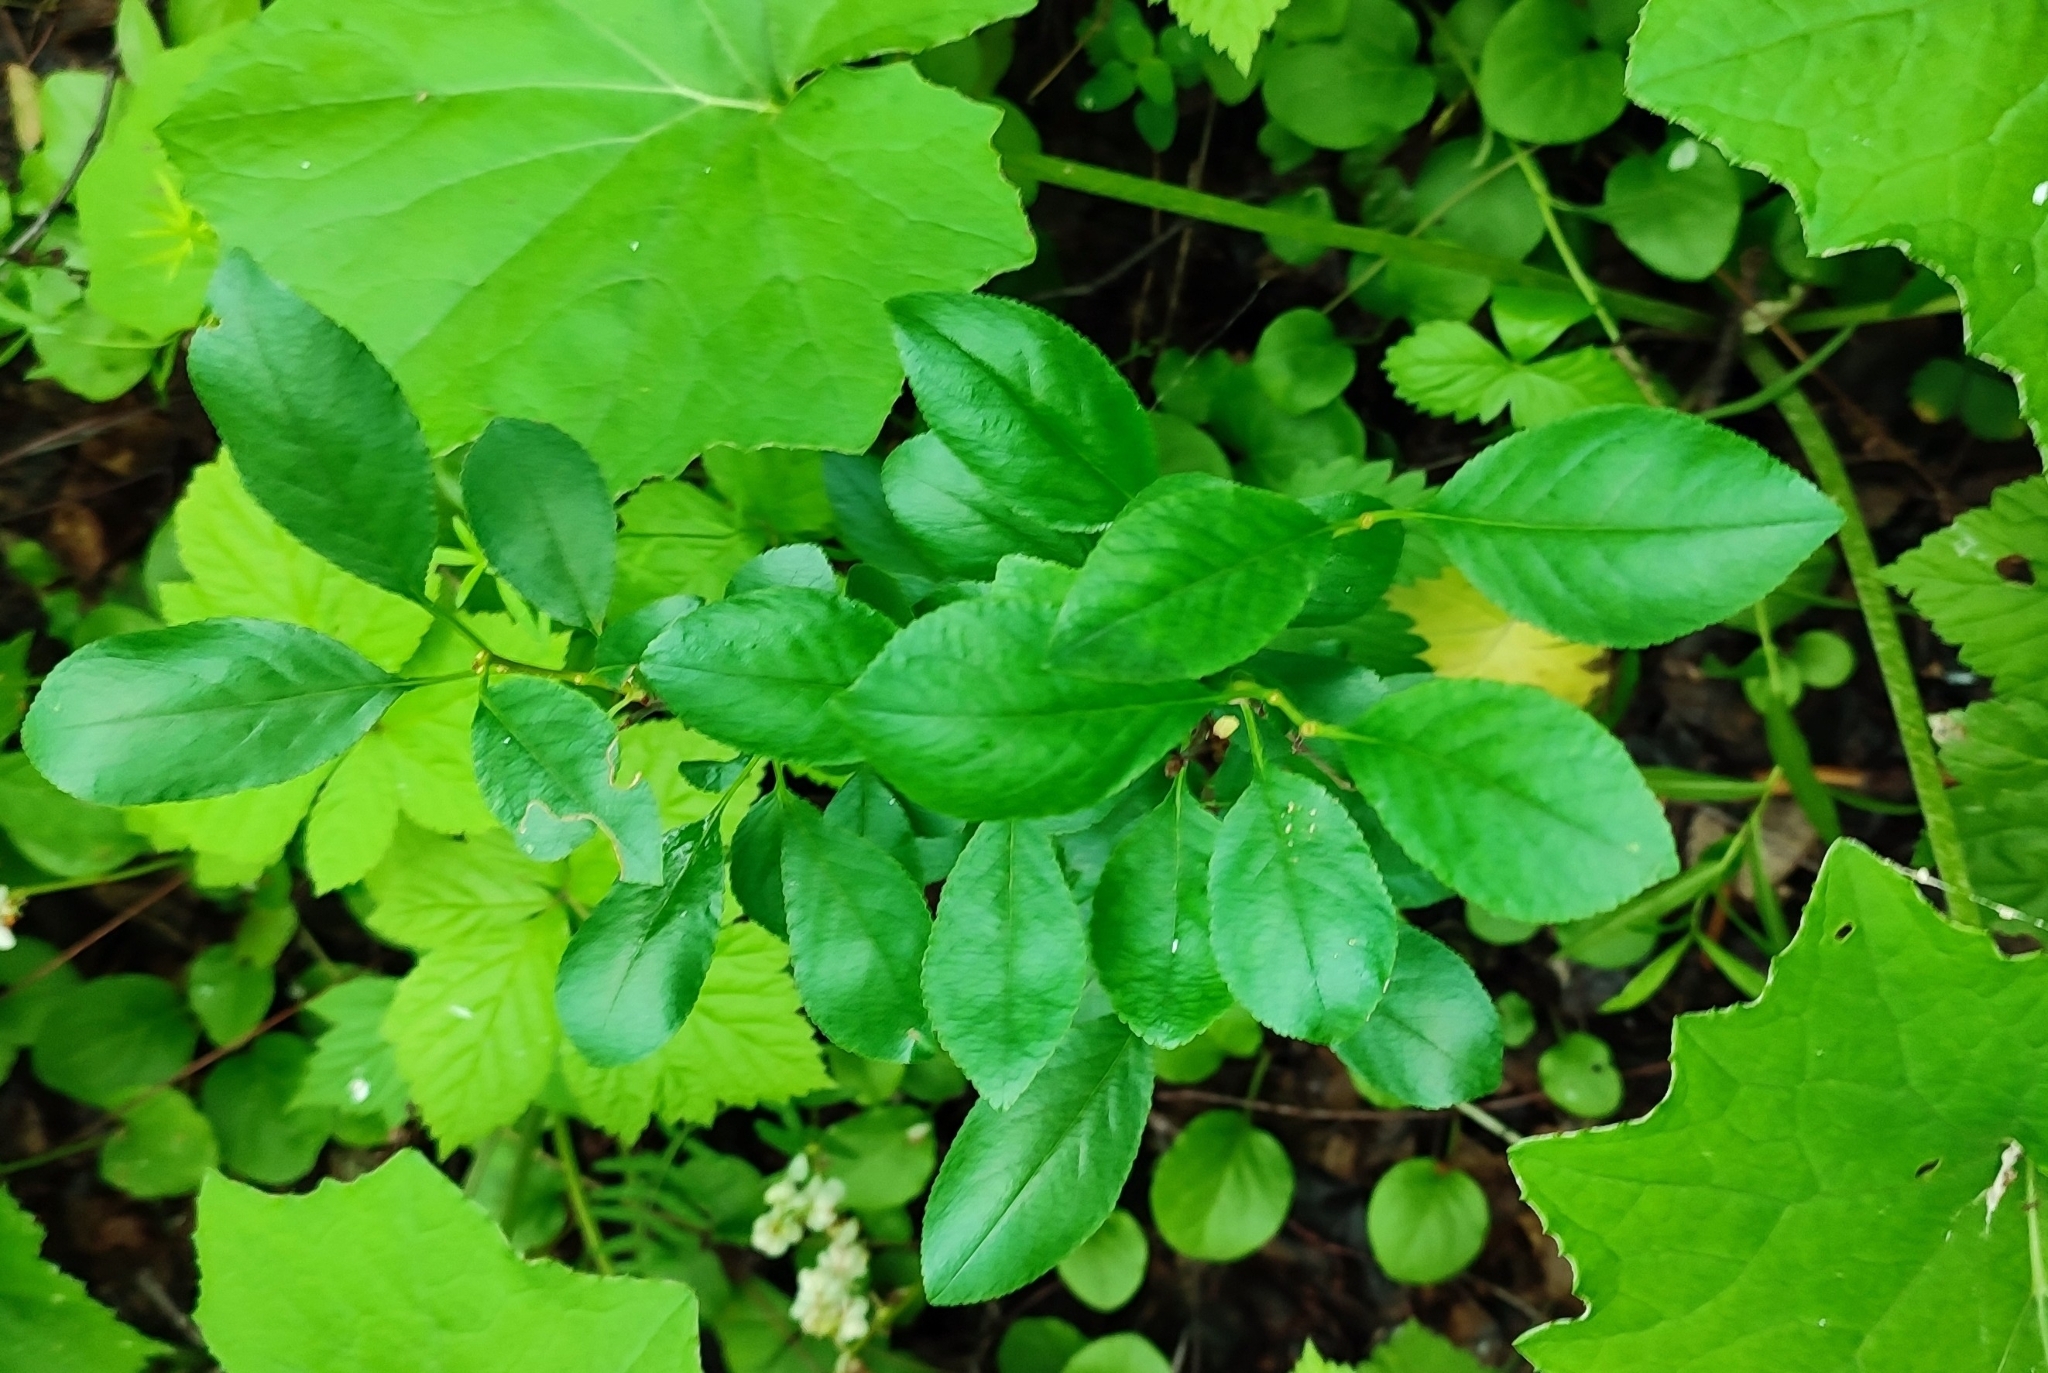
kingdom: Plantae
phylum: Tracheophyta
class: Magnoliopsida
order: Rosales
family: Rosaceae
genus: Prunus
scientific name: Prunus fruticosa
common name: European dwarf cherry
